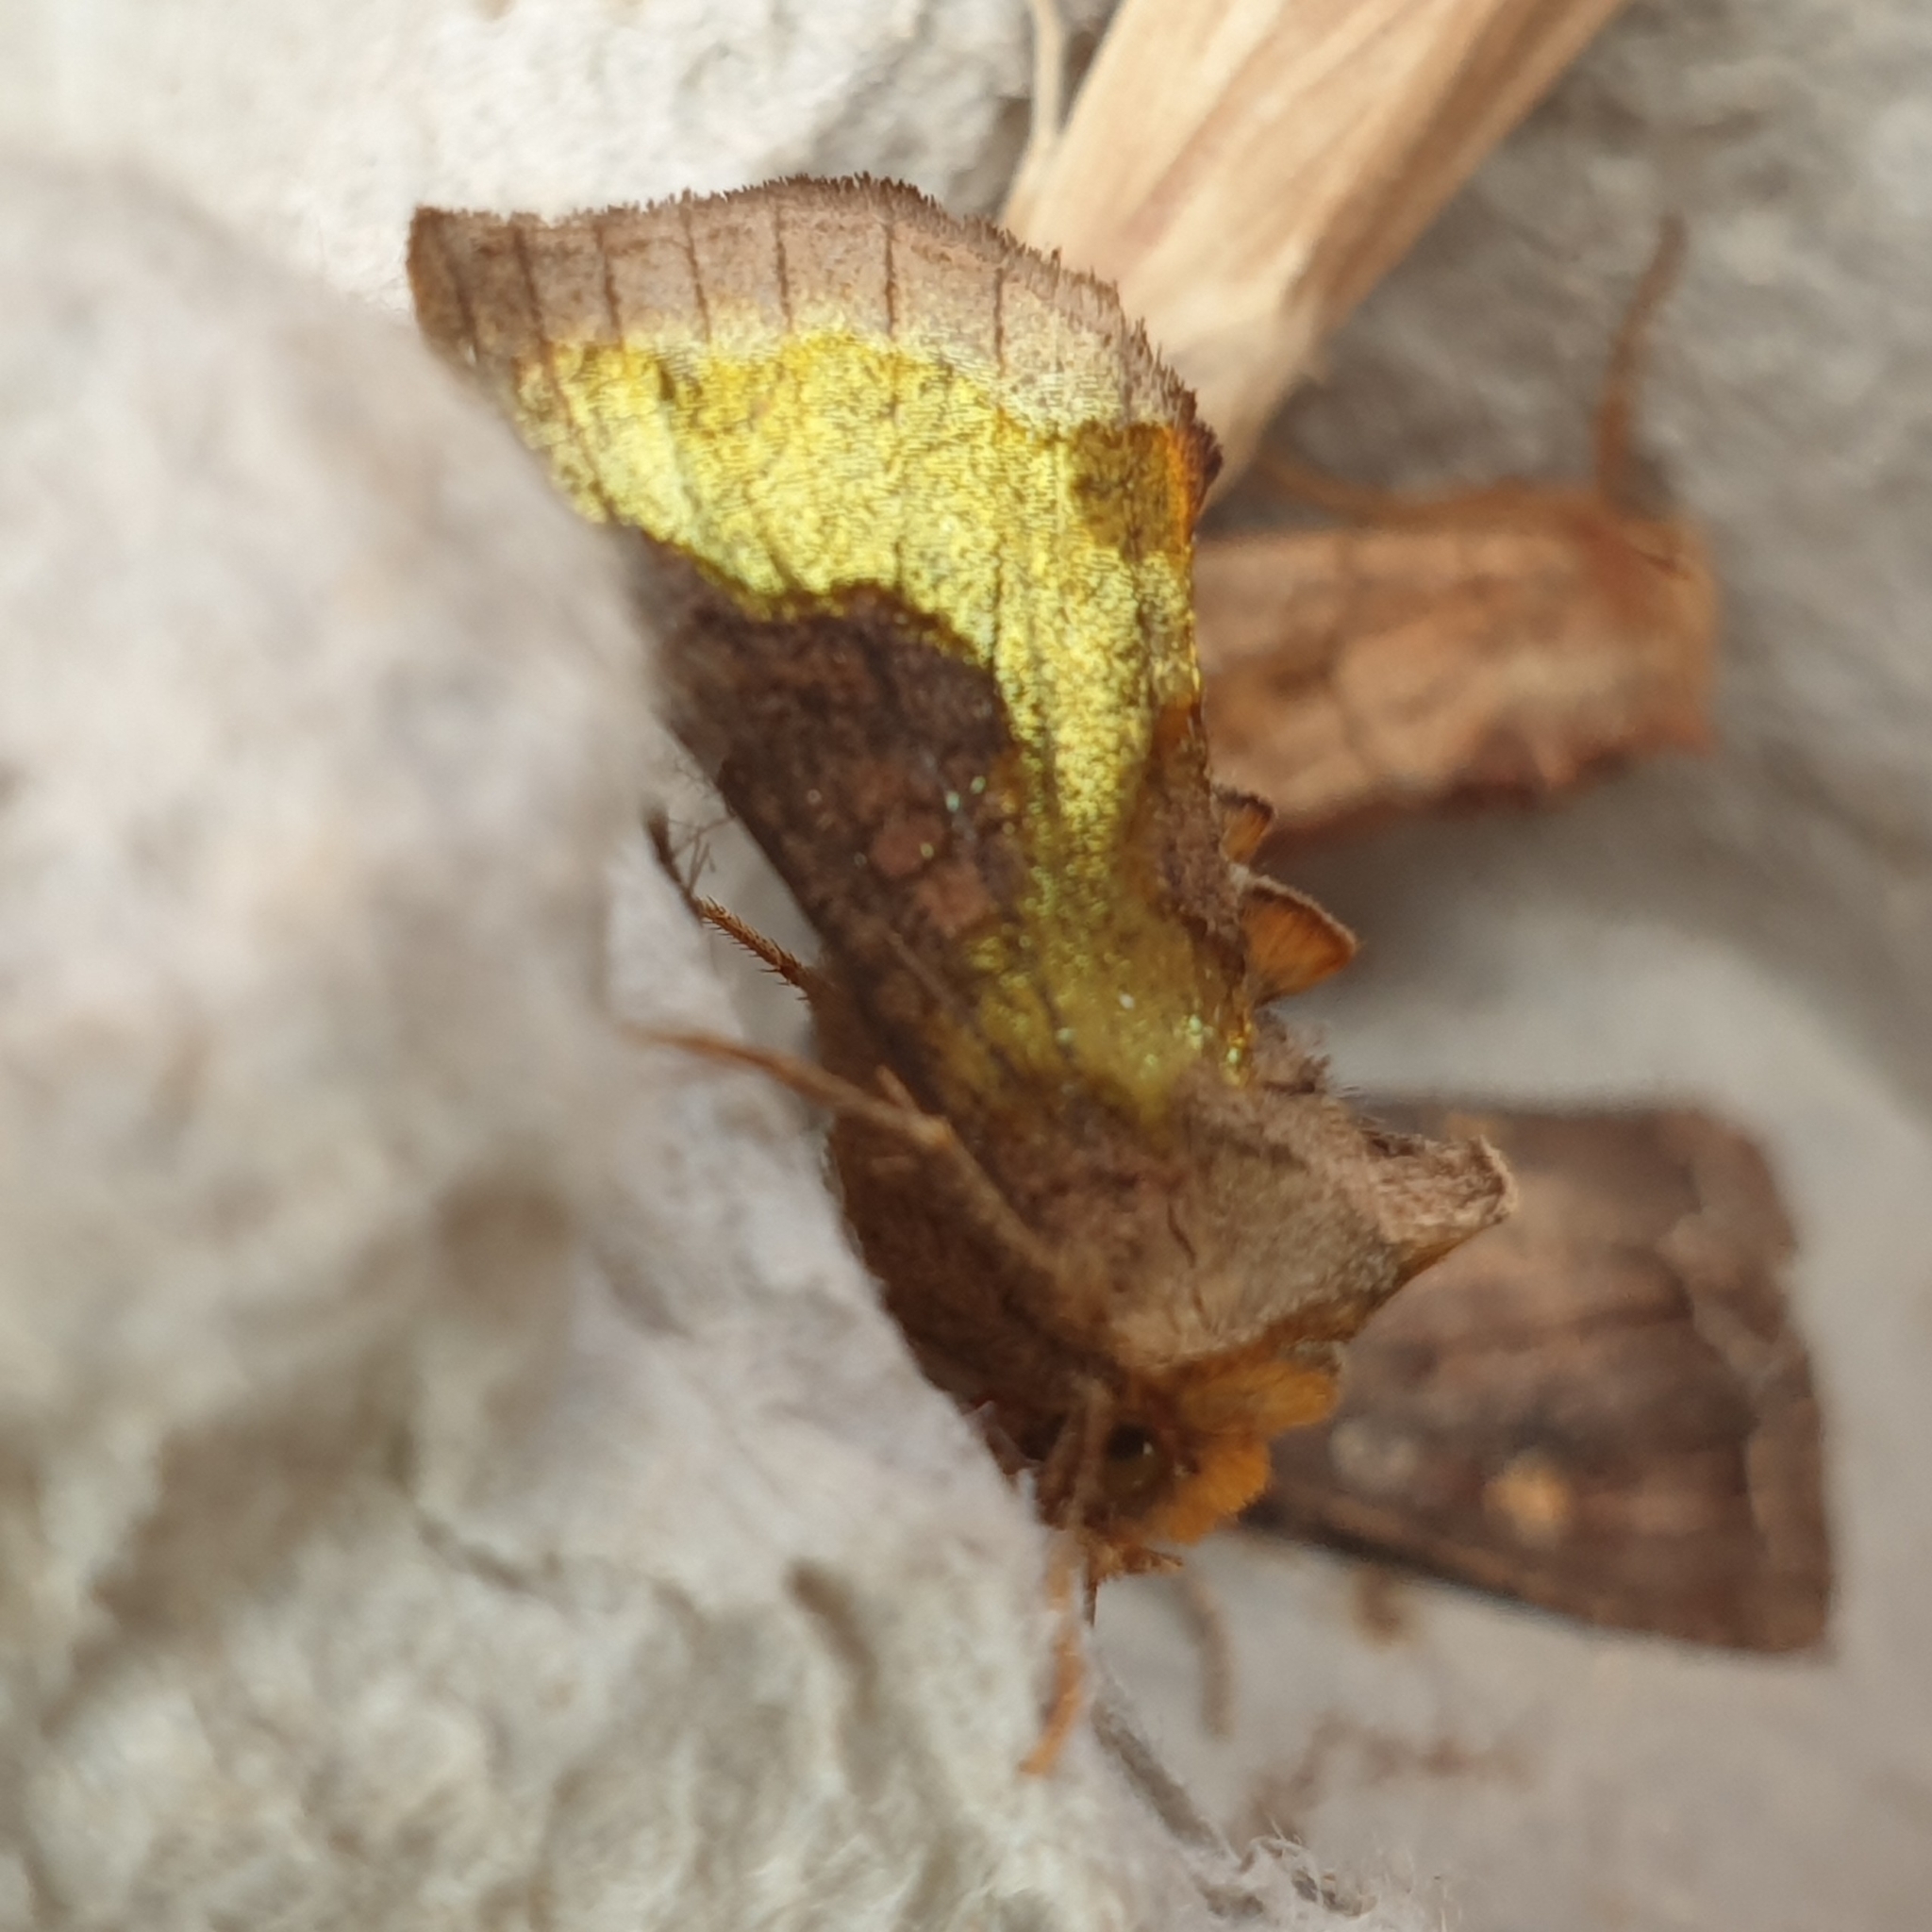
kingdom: Animalia
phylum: Arthropoda
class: Insecta
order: Lepidoptera
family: Noctuidae
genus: Diachrysia
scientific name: Diachrysia chrysitis
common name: Burnished brass
